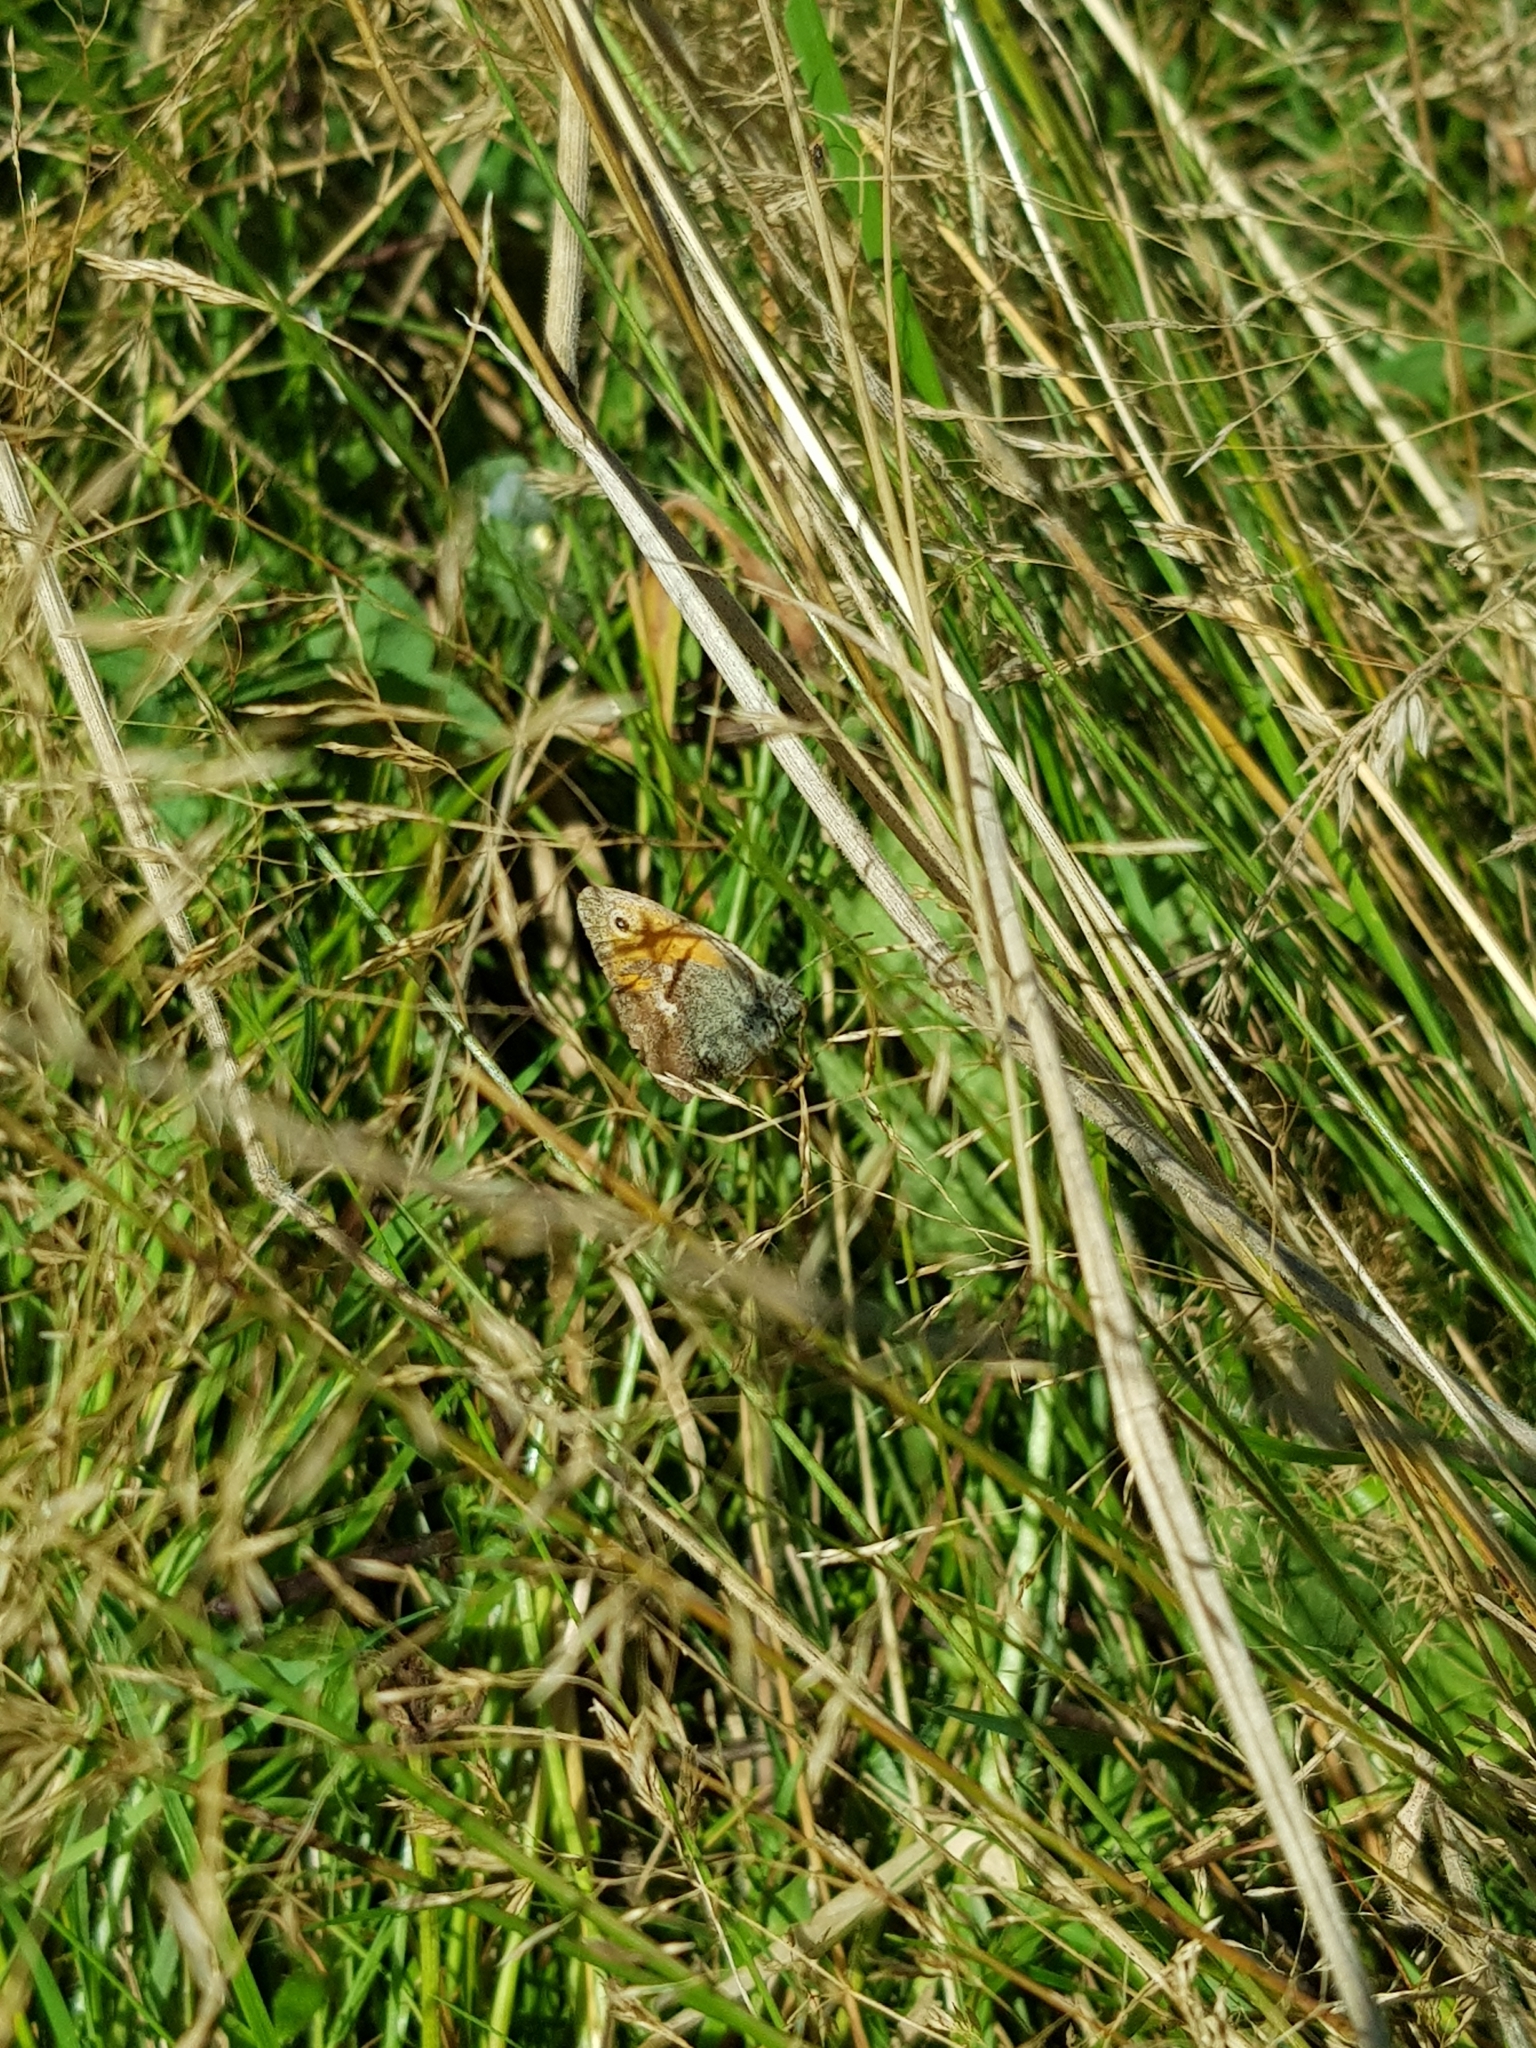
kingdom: Animalia
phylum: Arthropoda
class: Insecta
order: Lepidoptera
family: Nymphalidae
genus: Coenonympha
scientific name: Coenonympha pamphilus
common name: Small heath
